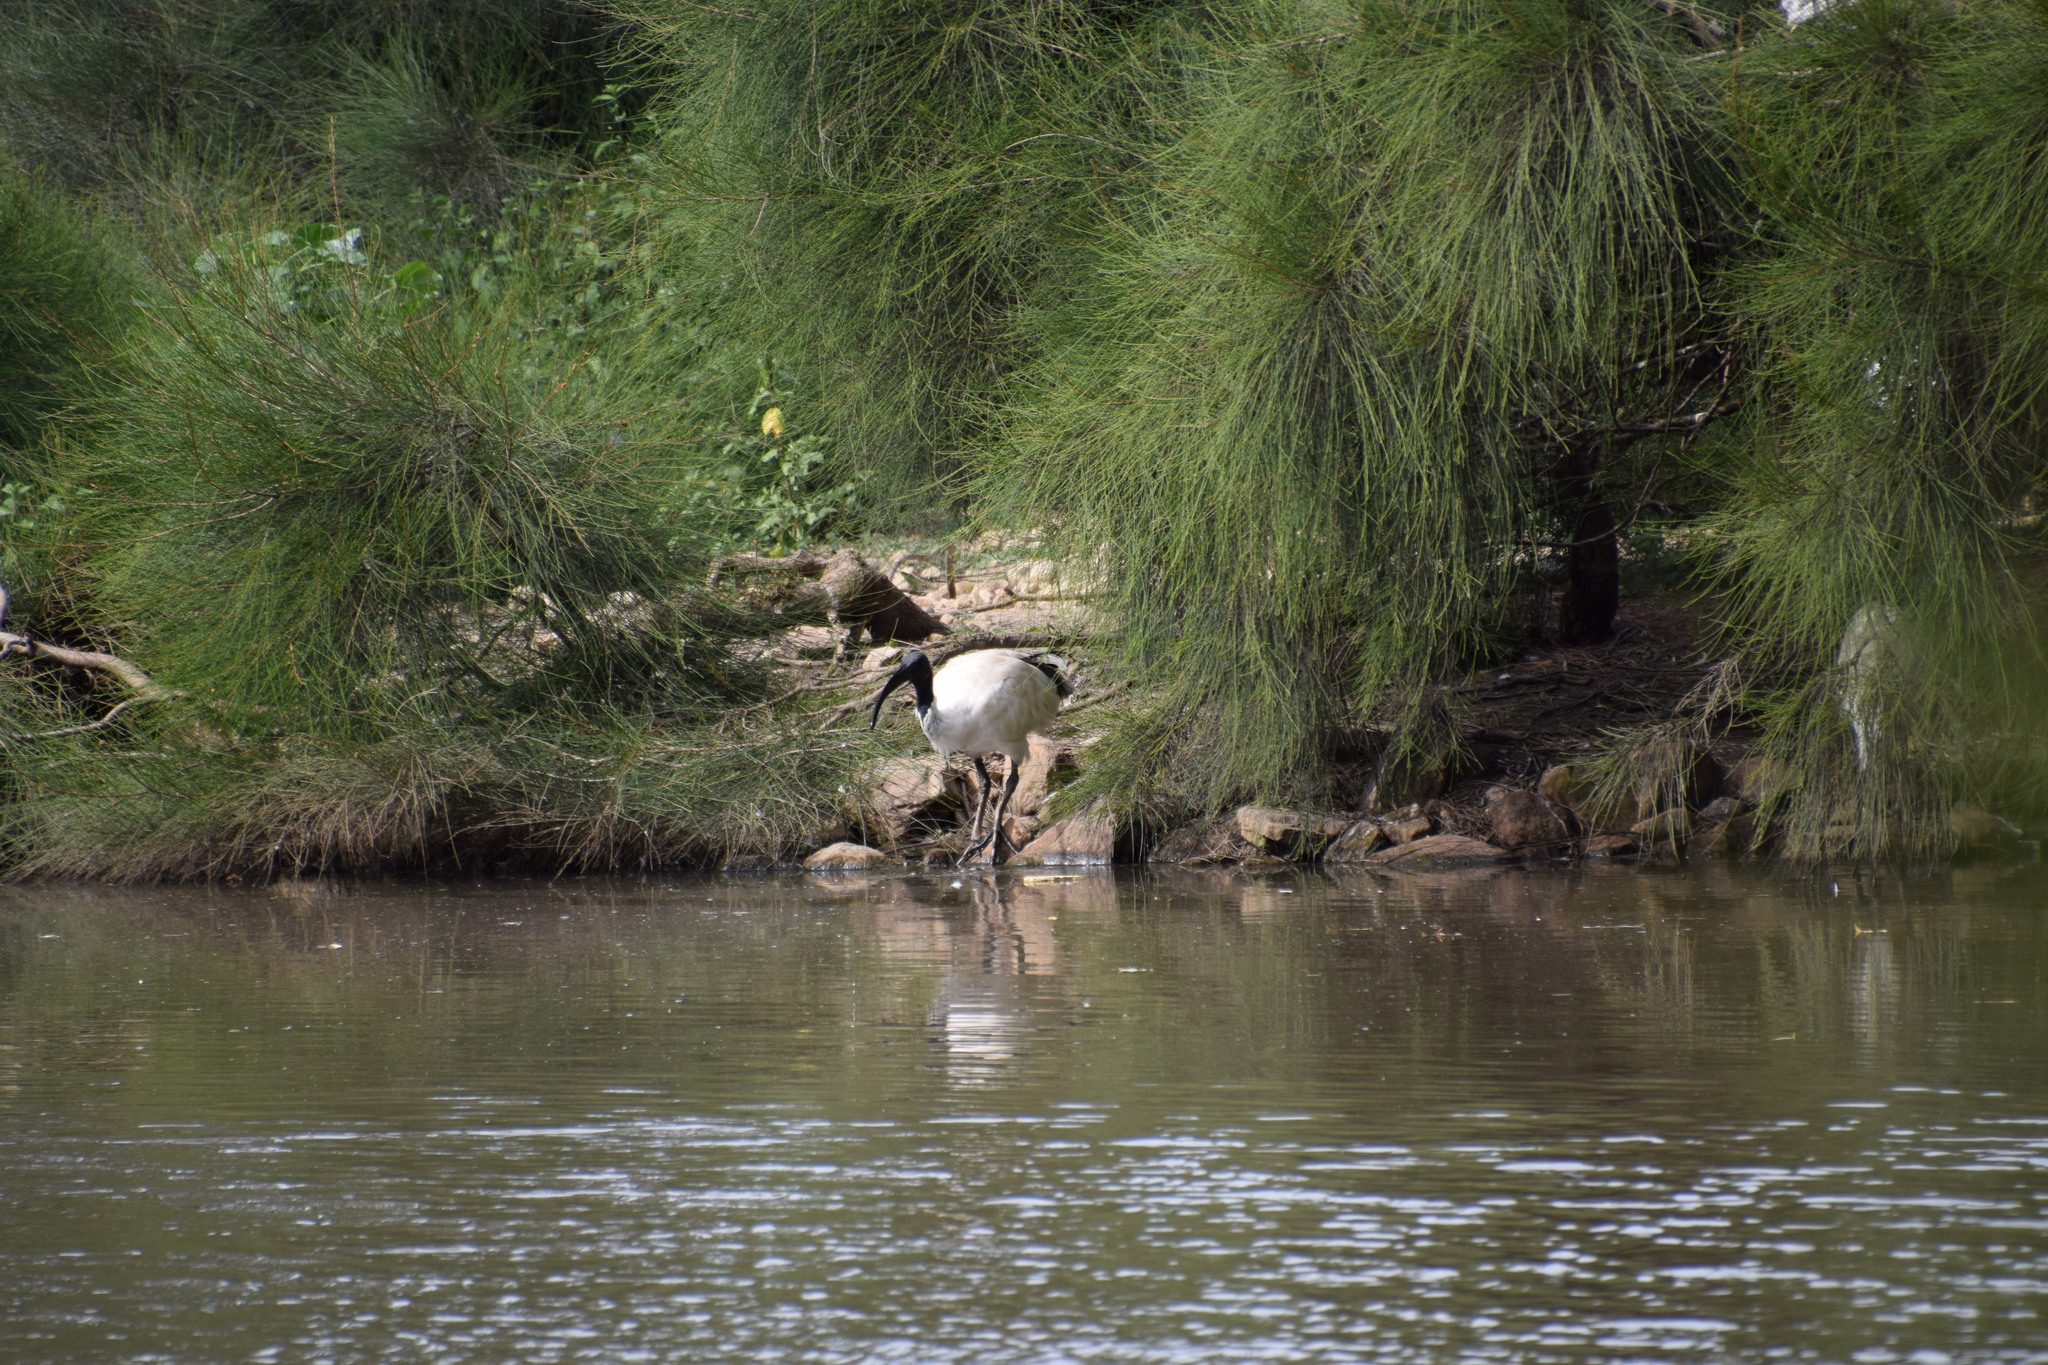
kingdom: Animalia
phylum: Chordata
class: Aves
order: Pelecaniformes
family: Threskiornithidae
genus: Threskiornis
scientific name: Threskiornis molucca
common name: Australian white ibis
